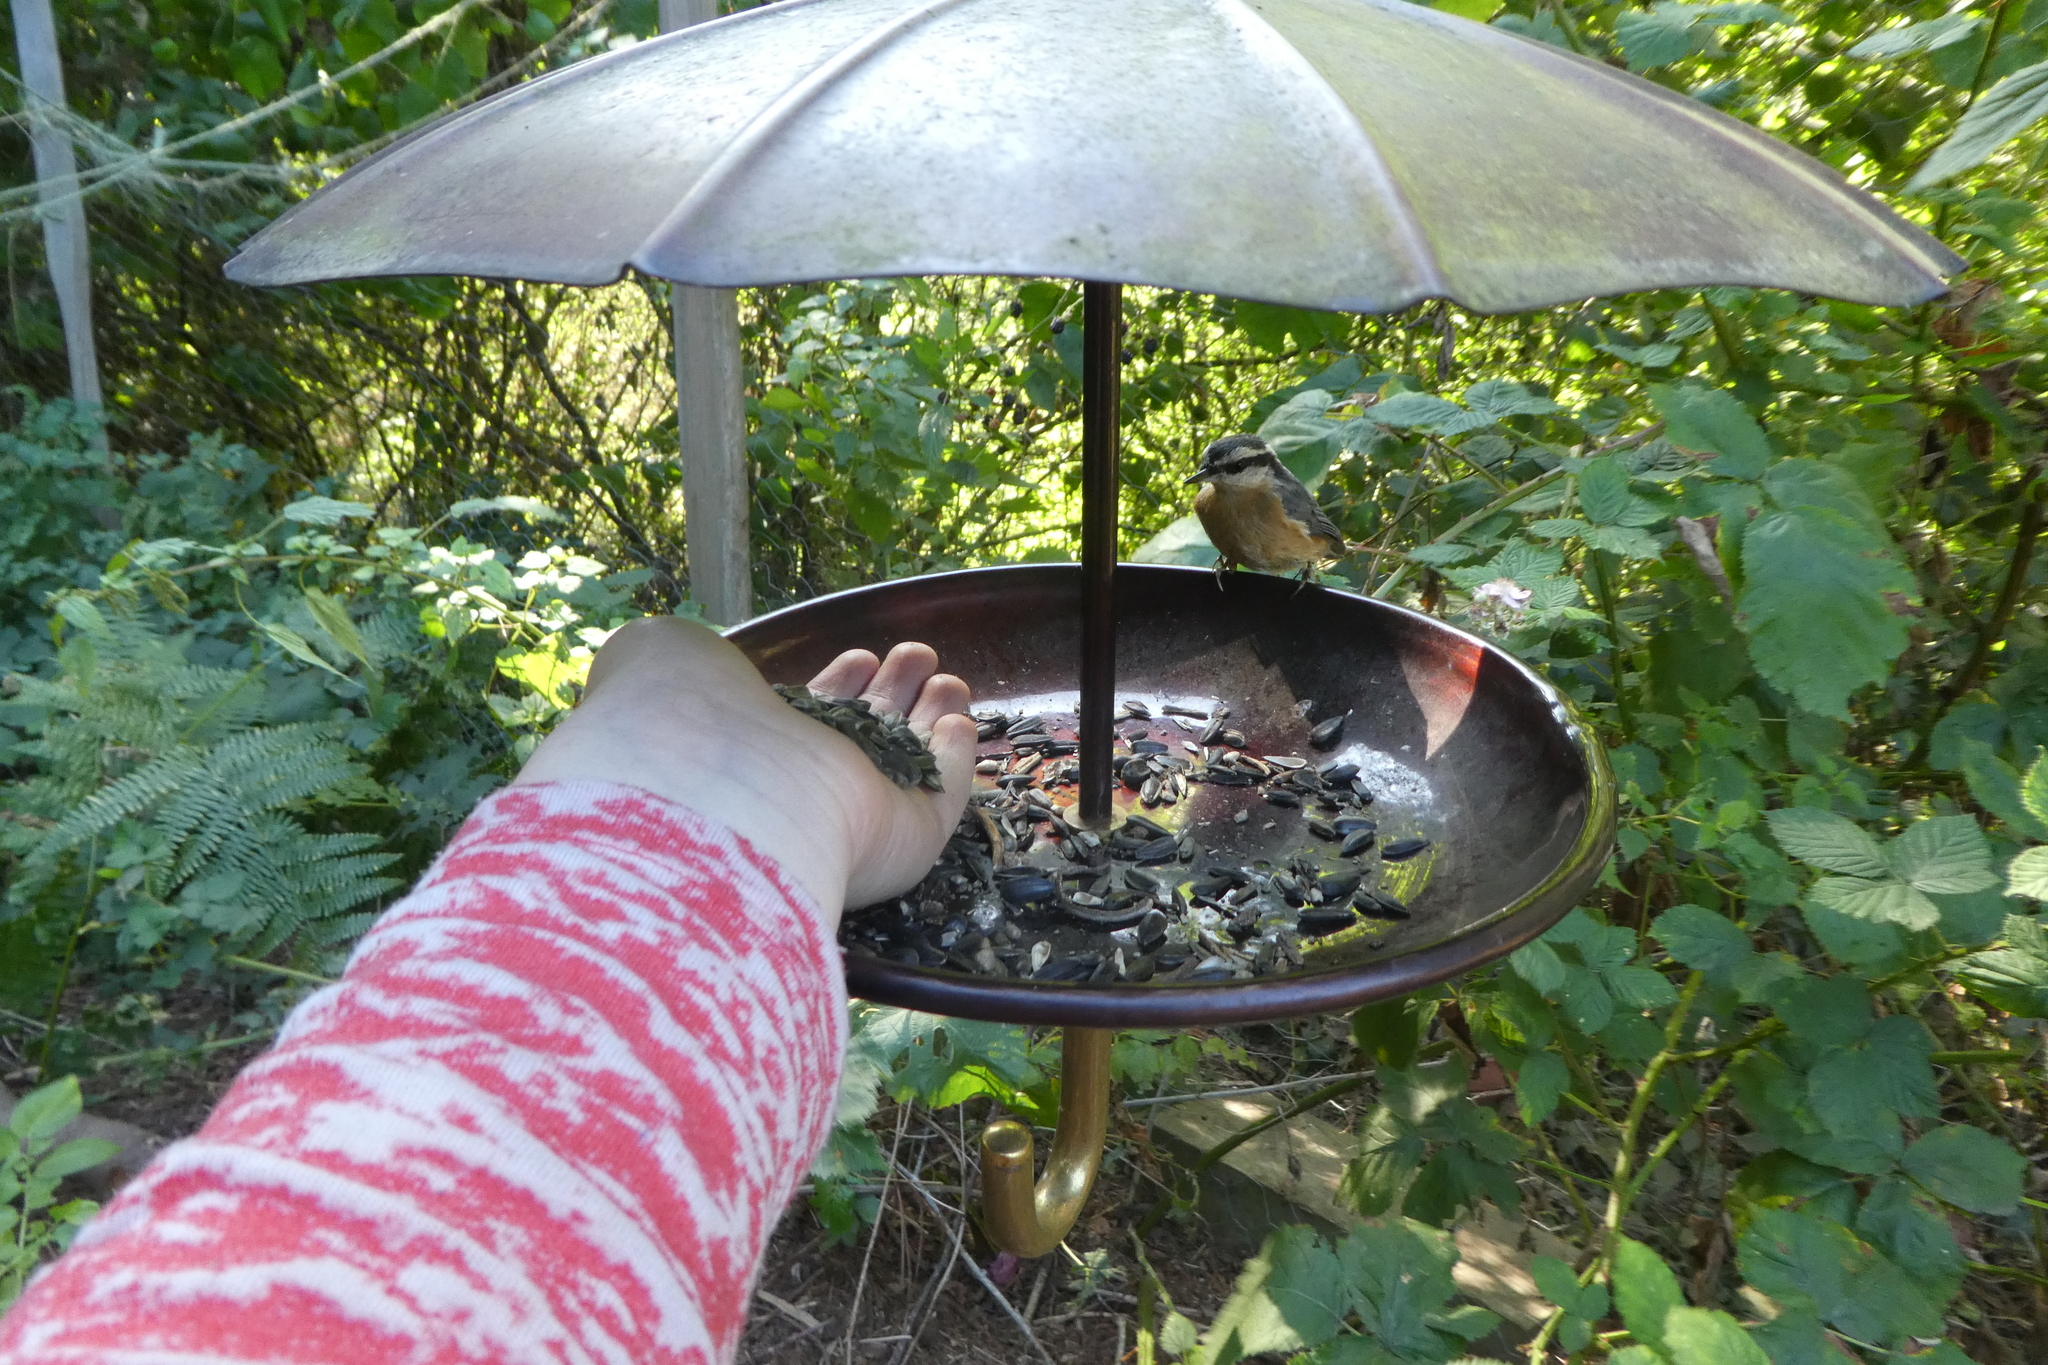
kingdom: Animalia
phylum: Chordata
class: Aves
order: Passeriformes
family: Sittidae
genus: Sitta
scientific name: Sitta canadensis
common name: Red-breasted nuthatch
